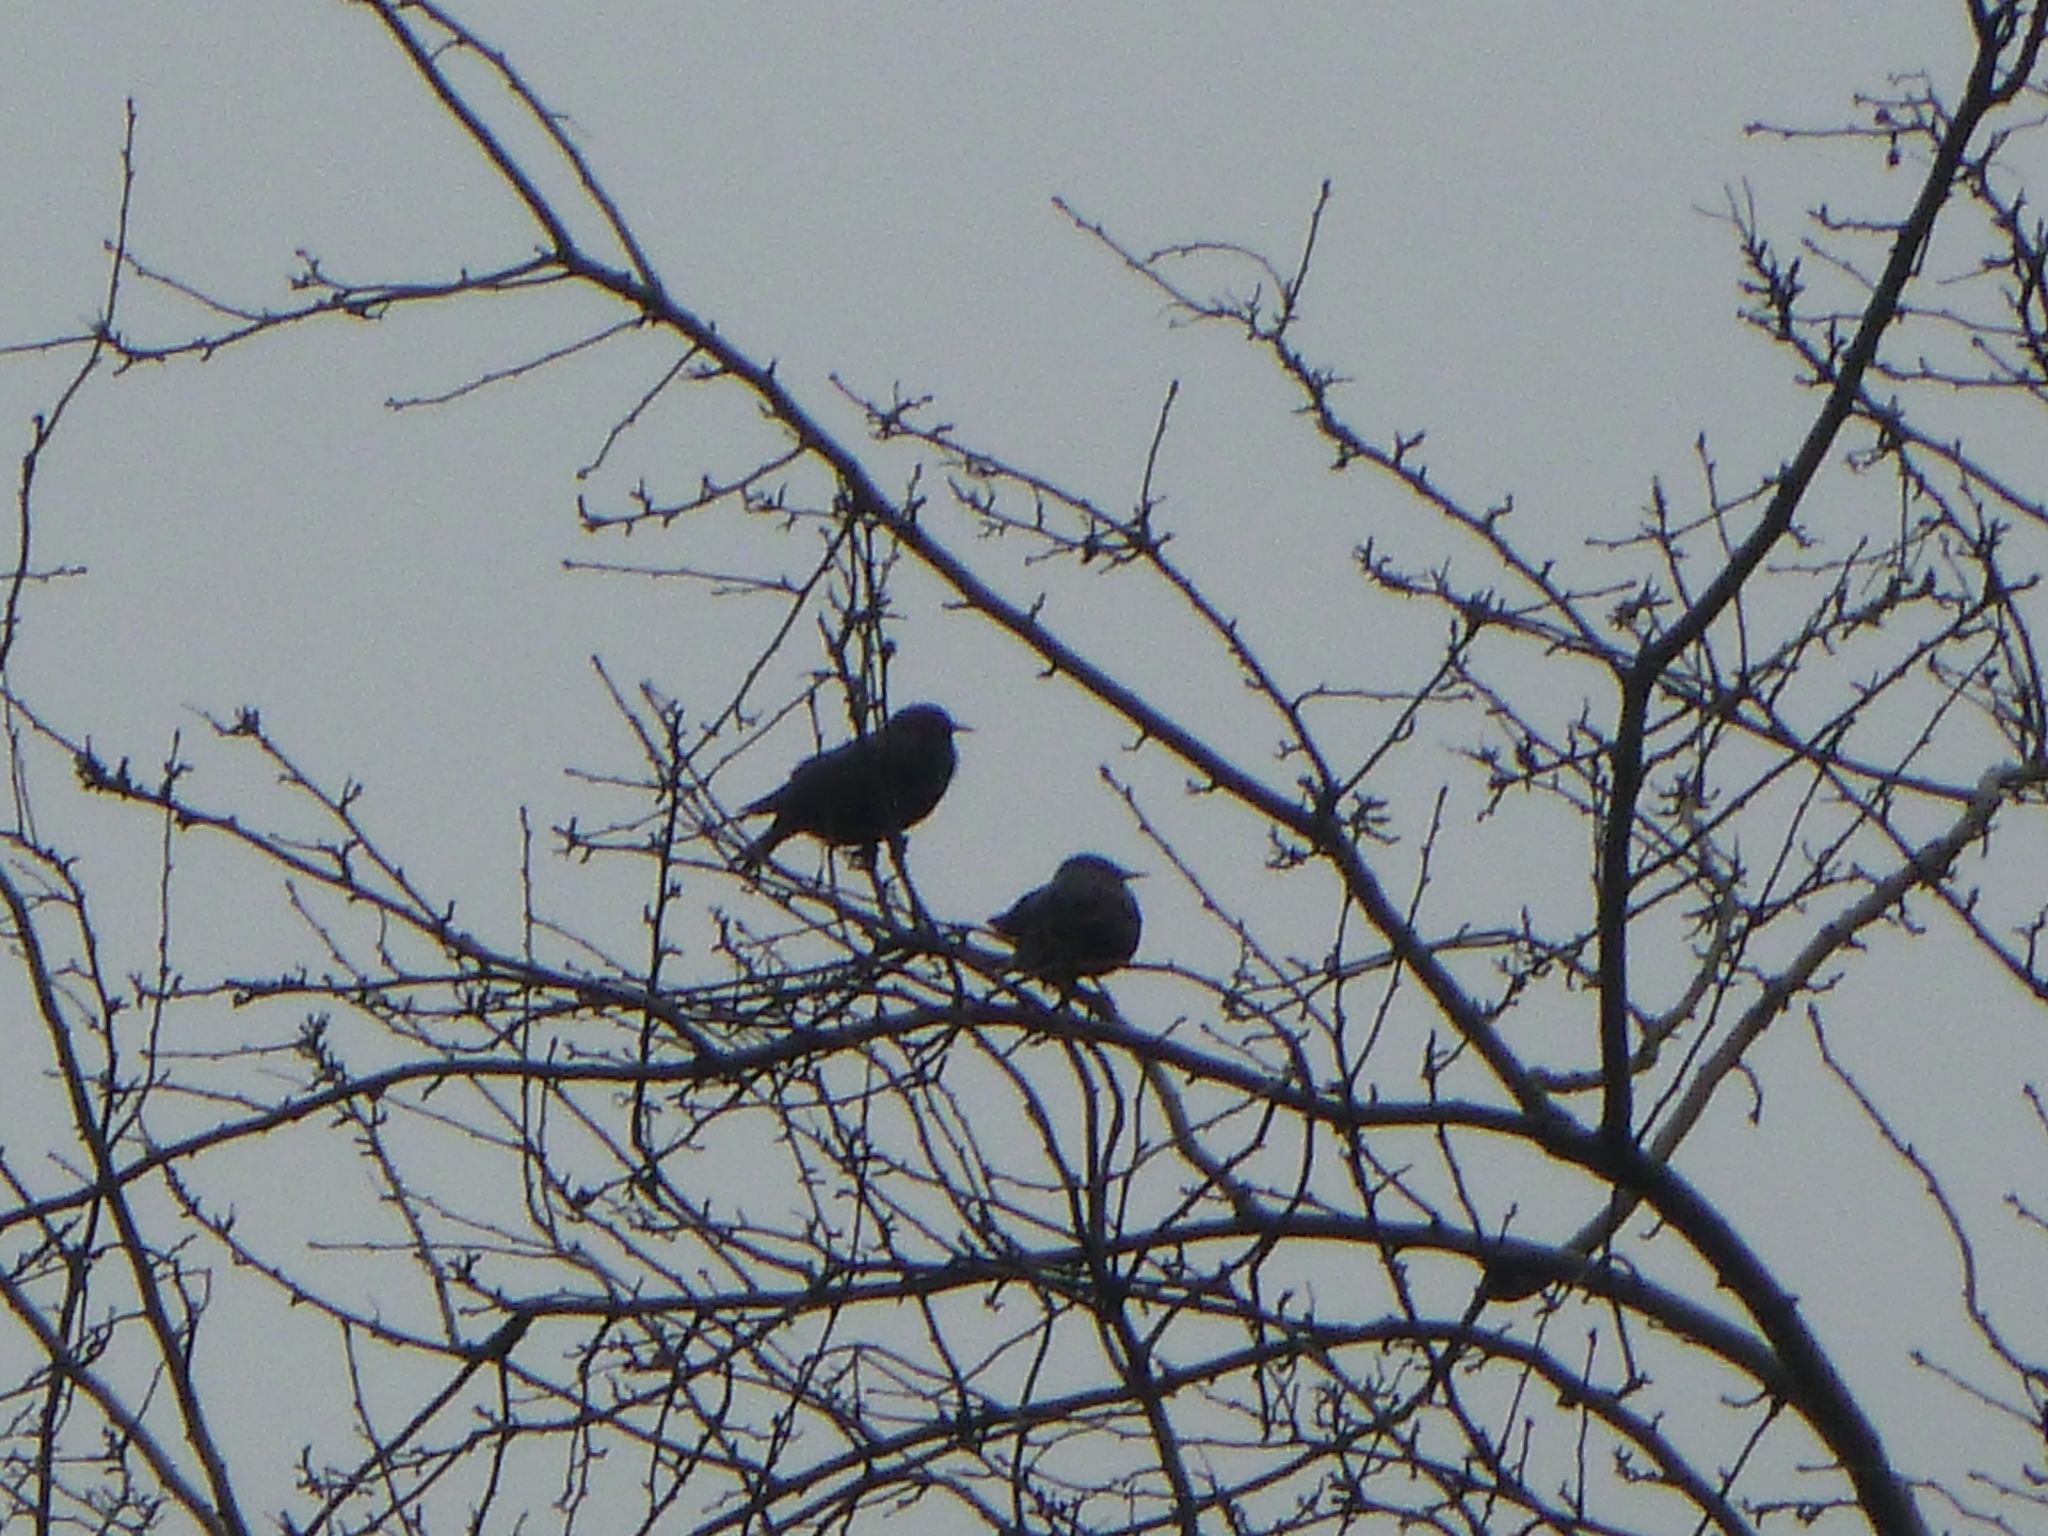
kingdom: Animalia
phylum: Chordata
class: Aves
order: Passeriformes
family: Sturnidae
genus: Sturnus
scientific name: Sturnus vulgaris
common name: Common starling
